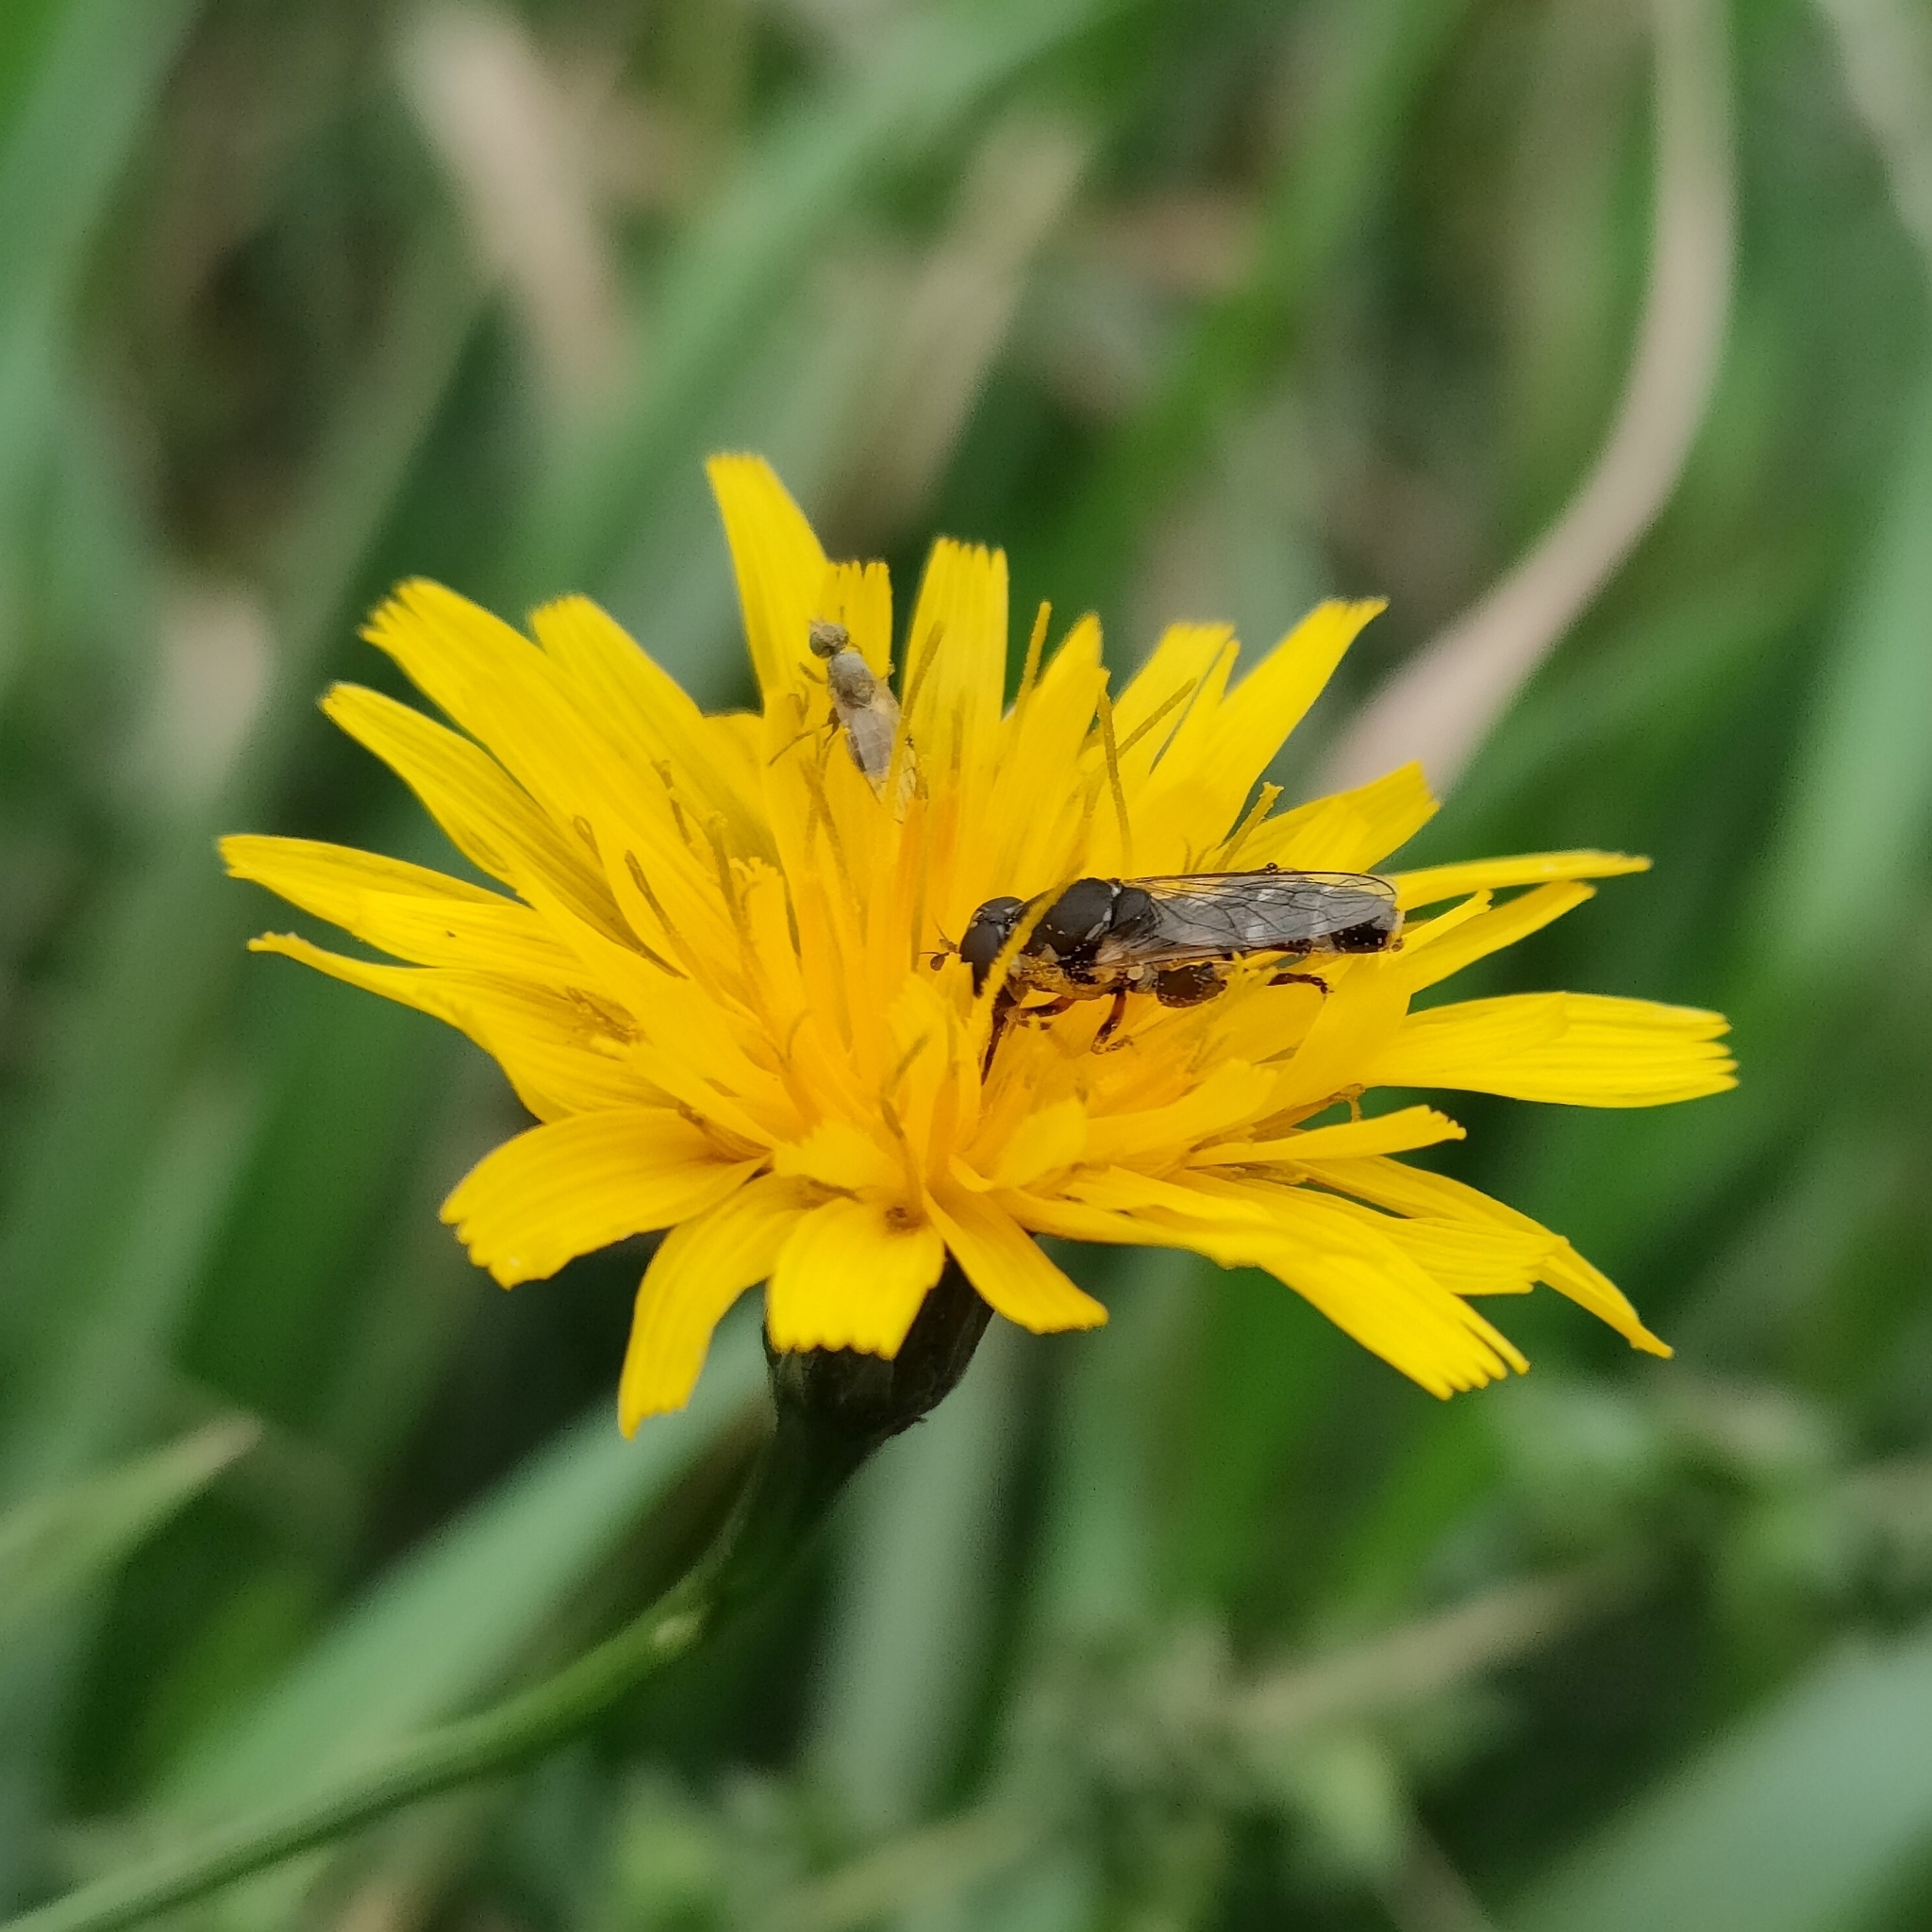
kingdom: Animalia
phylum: Arthropoda
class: Insecta
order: Diptera
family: Syrphidae
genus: Syritta
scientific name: Syritta pipiens
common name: Hover fly
